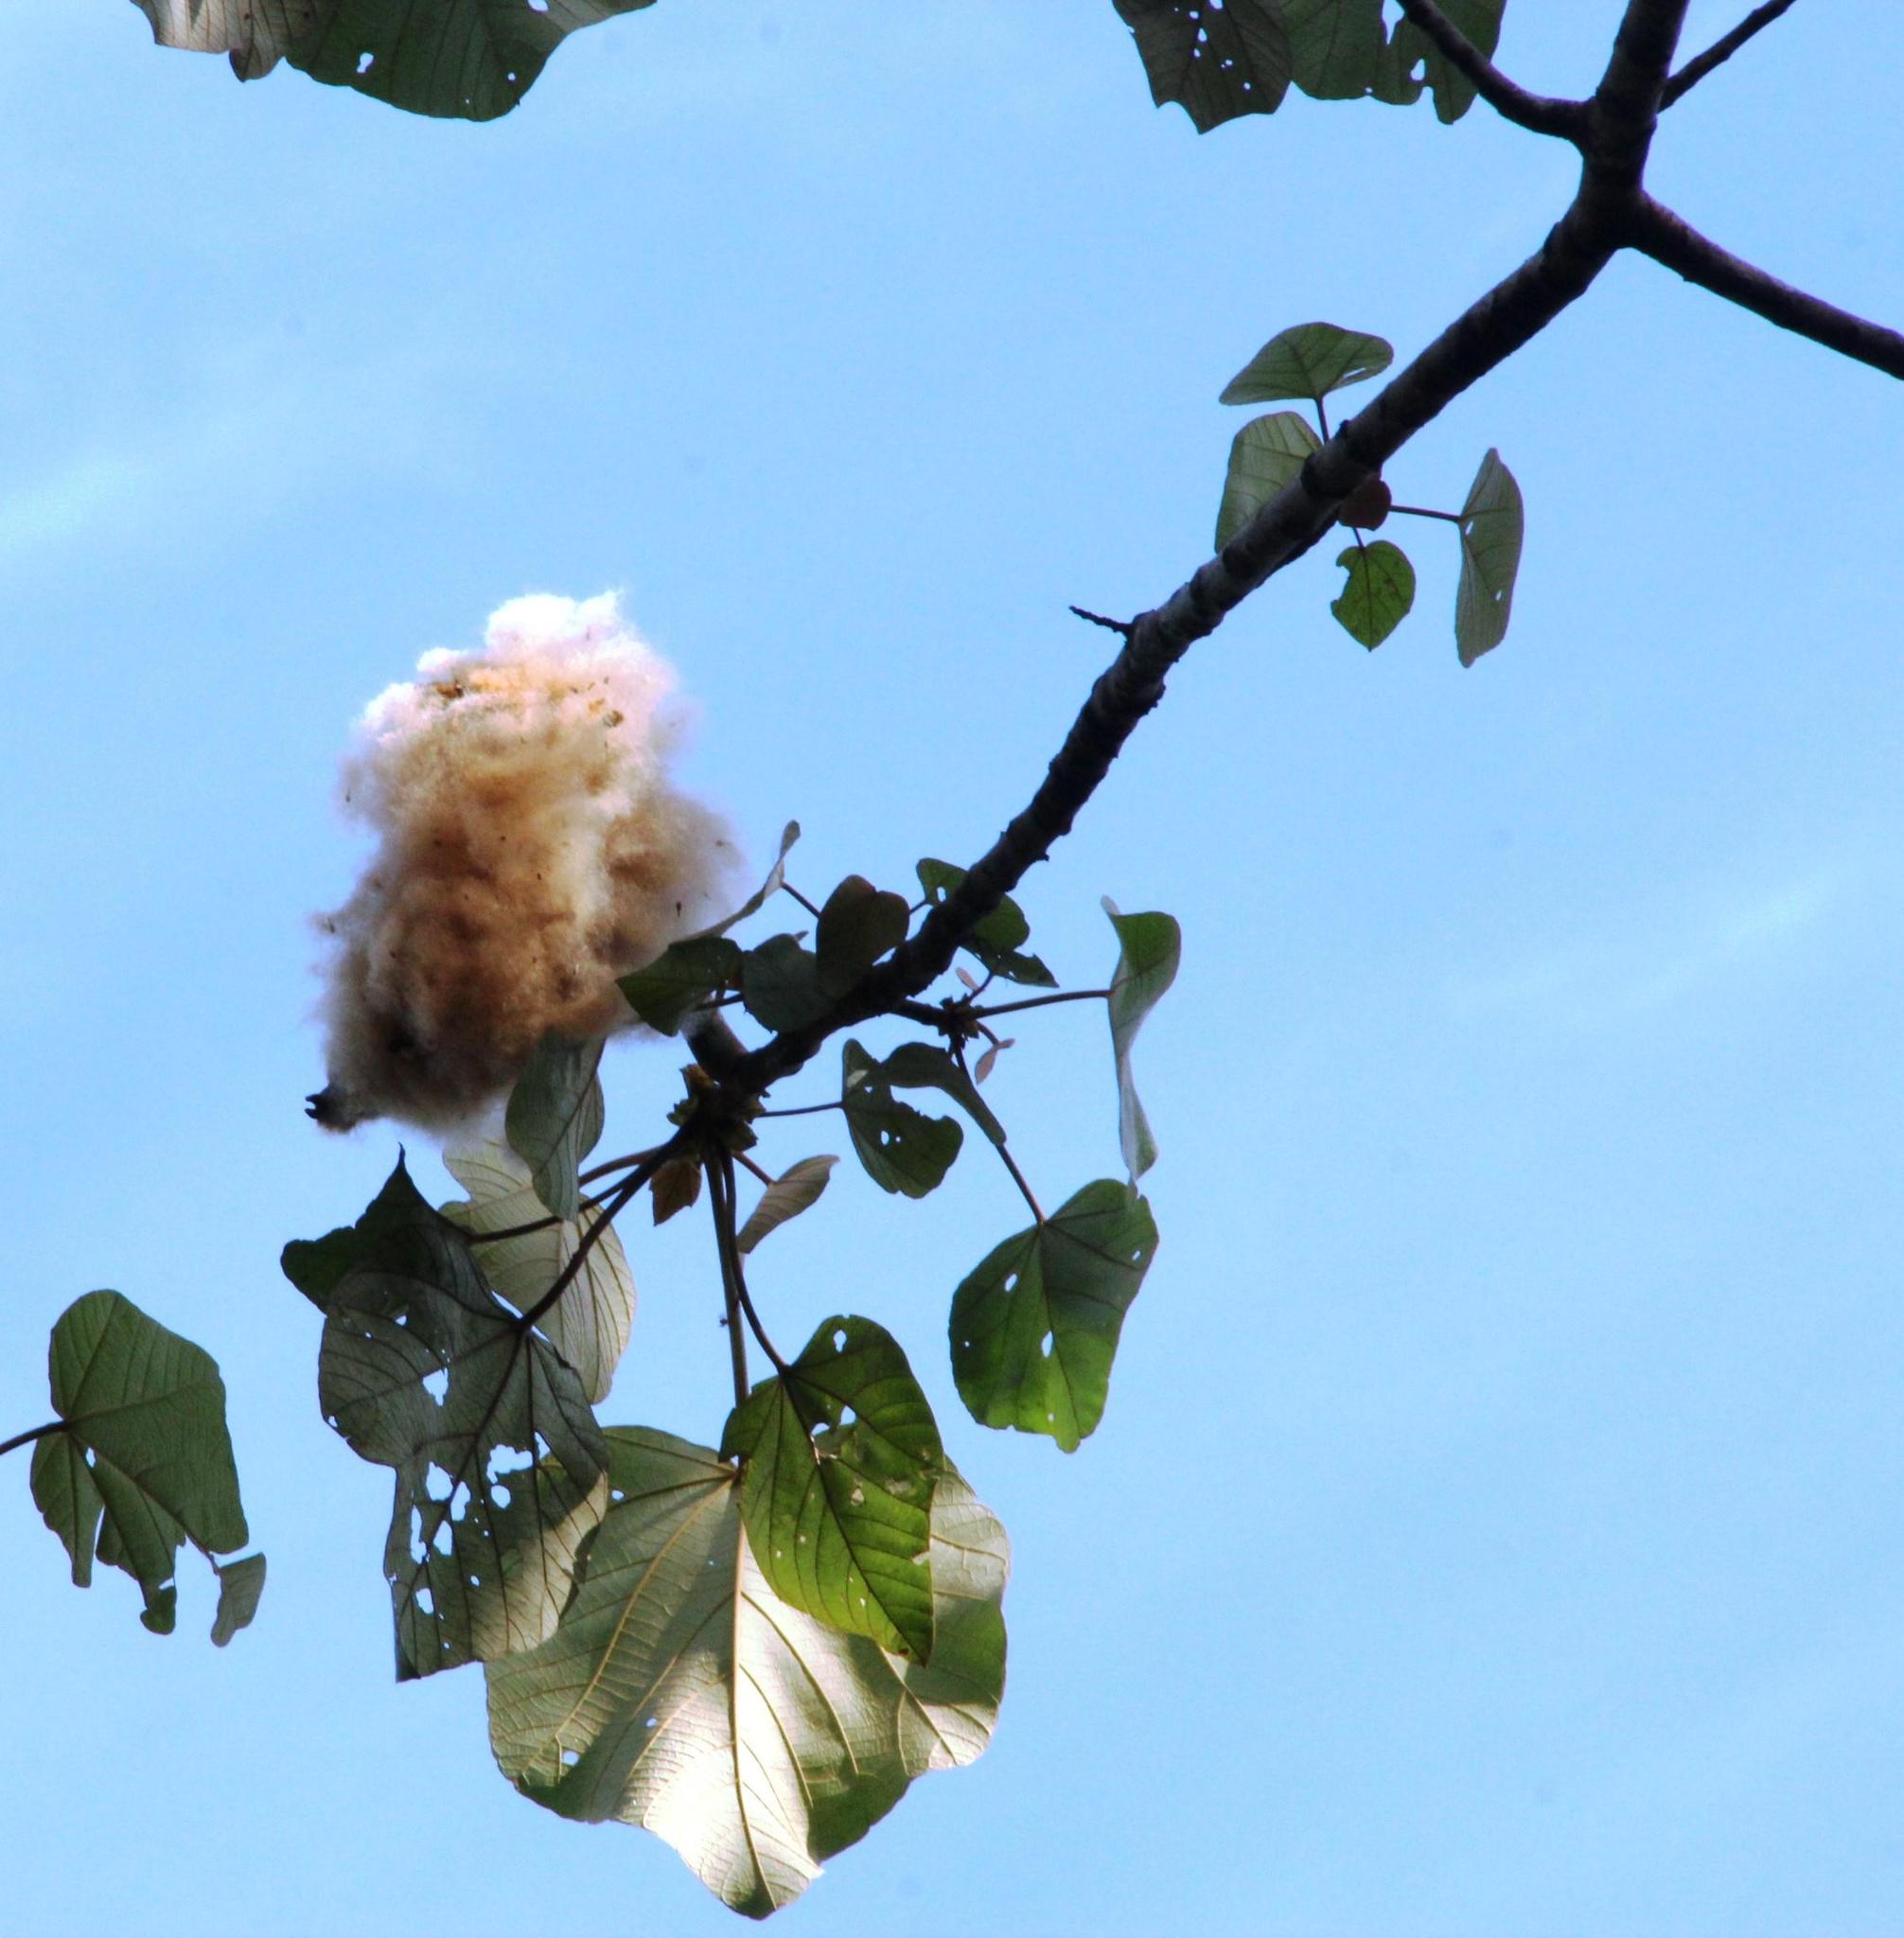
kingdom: Plantae
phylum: Tracheophyta
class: Magnoliopsida
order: Malvales
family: Malvaceae
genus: Ochroma
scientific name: Ochroma pyramidale
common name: Balsa
